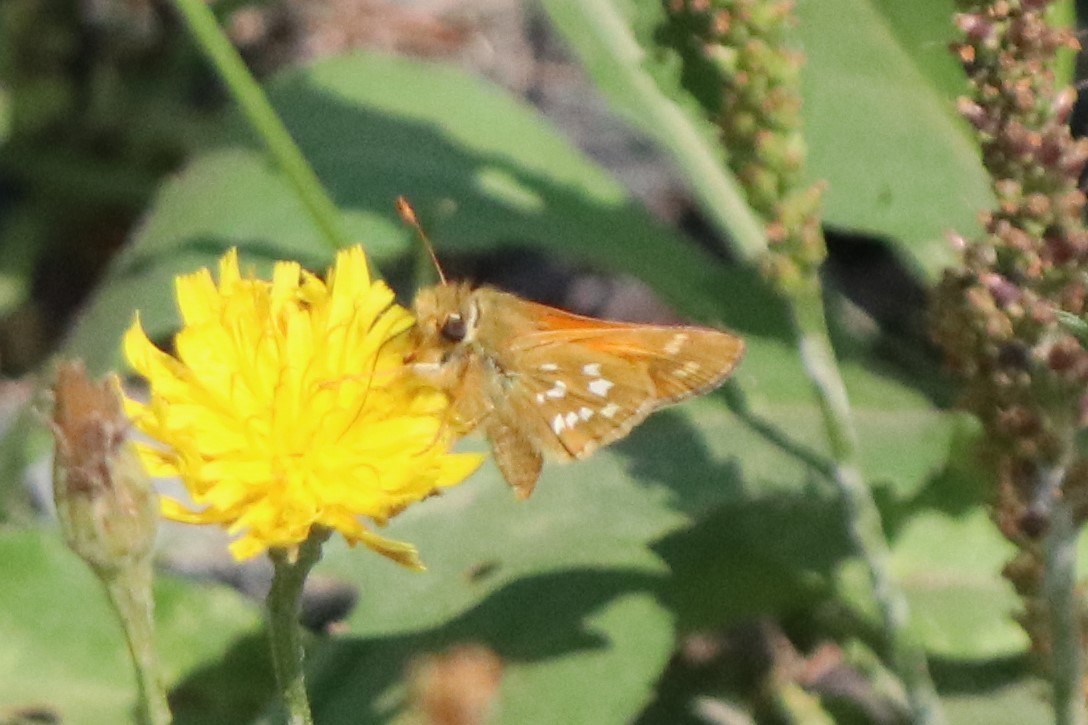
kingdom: Animalia
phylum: Arthropoda
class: Insecta
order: Lepidoptera
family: Hesperiidae
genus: Hesperia
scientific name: Hesperia comma
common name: Common branded skipper
